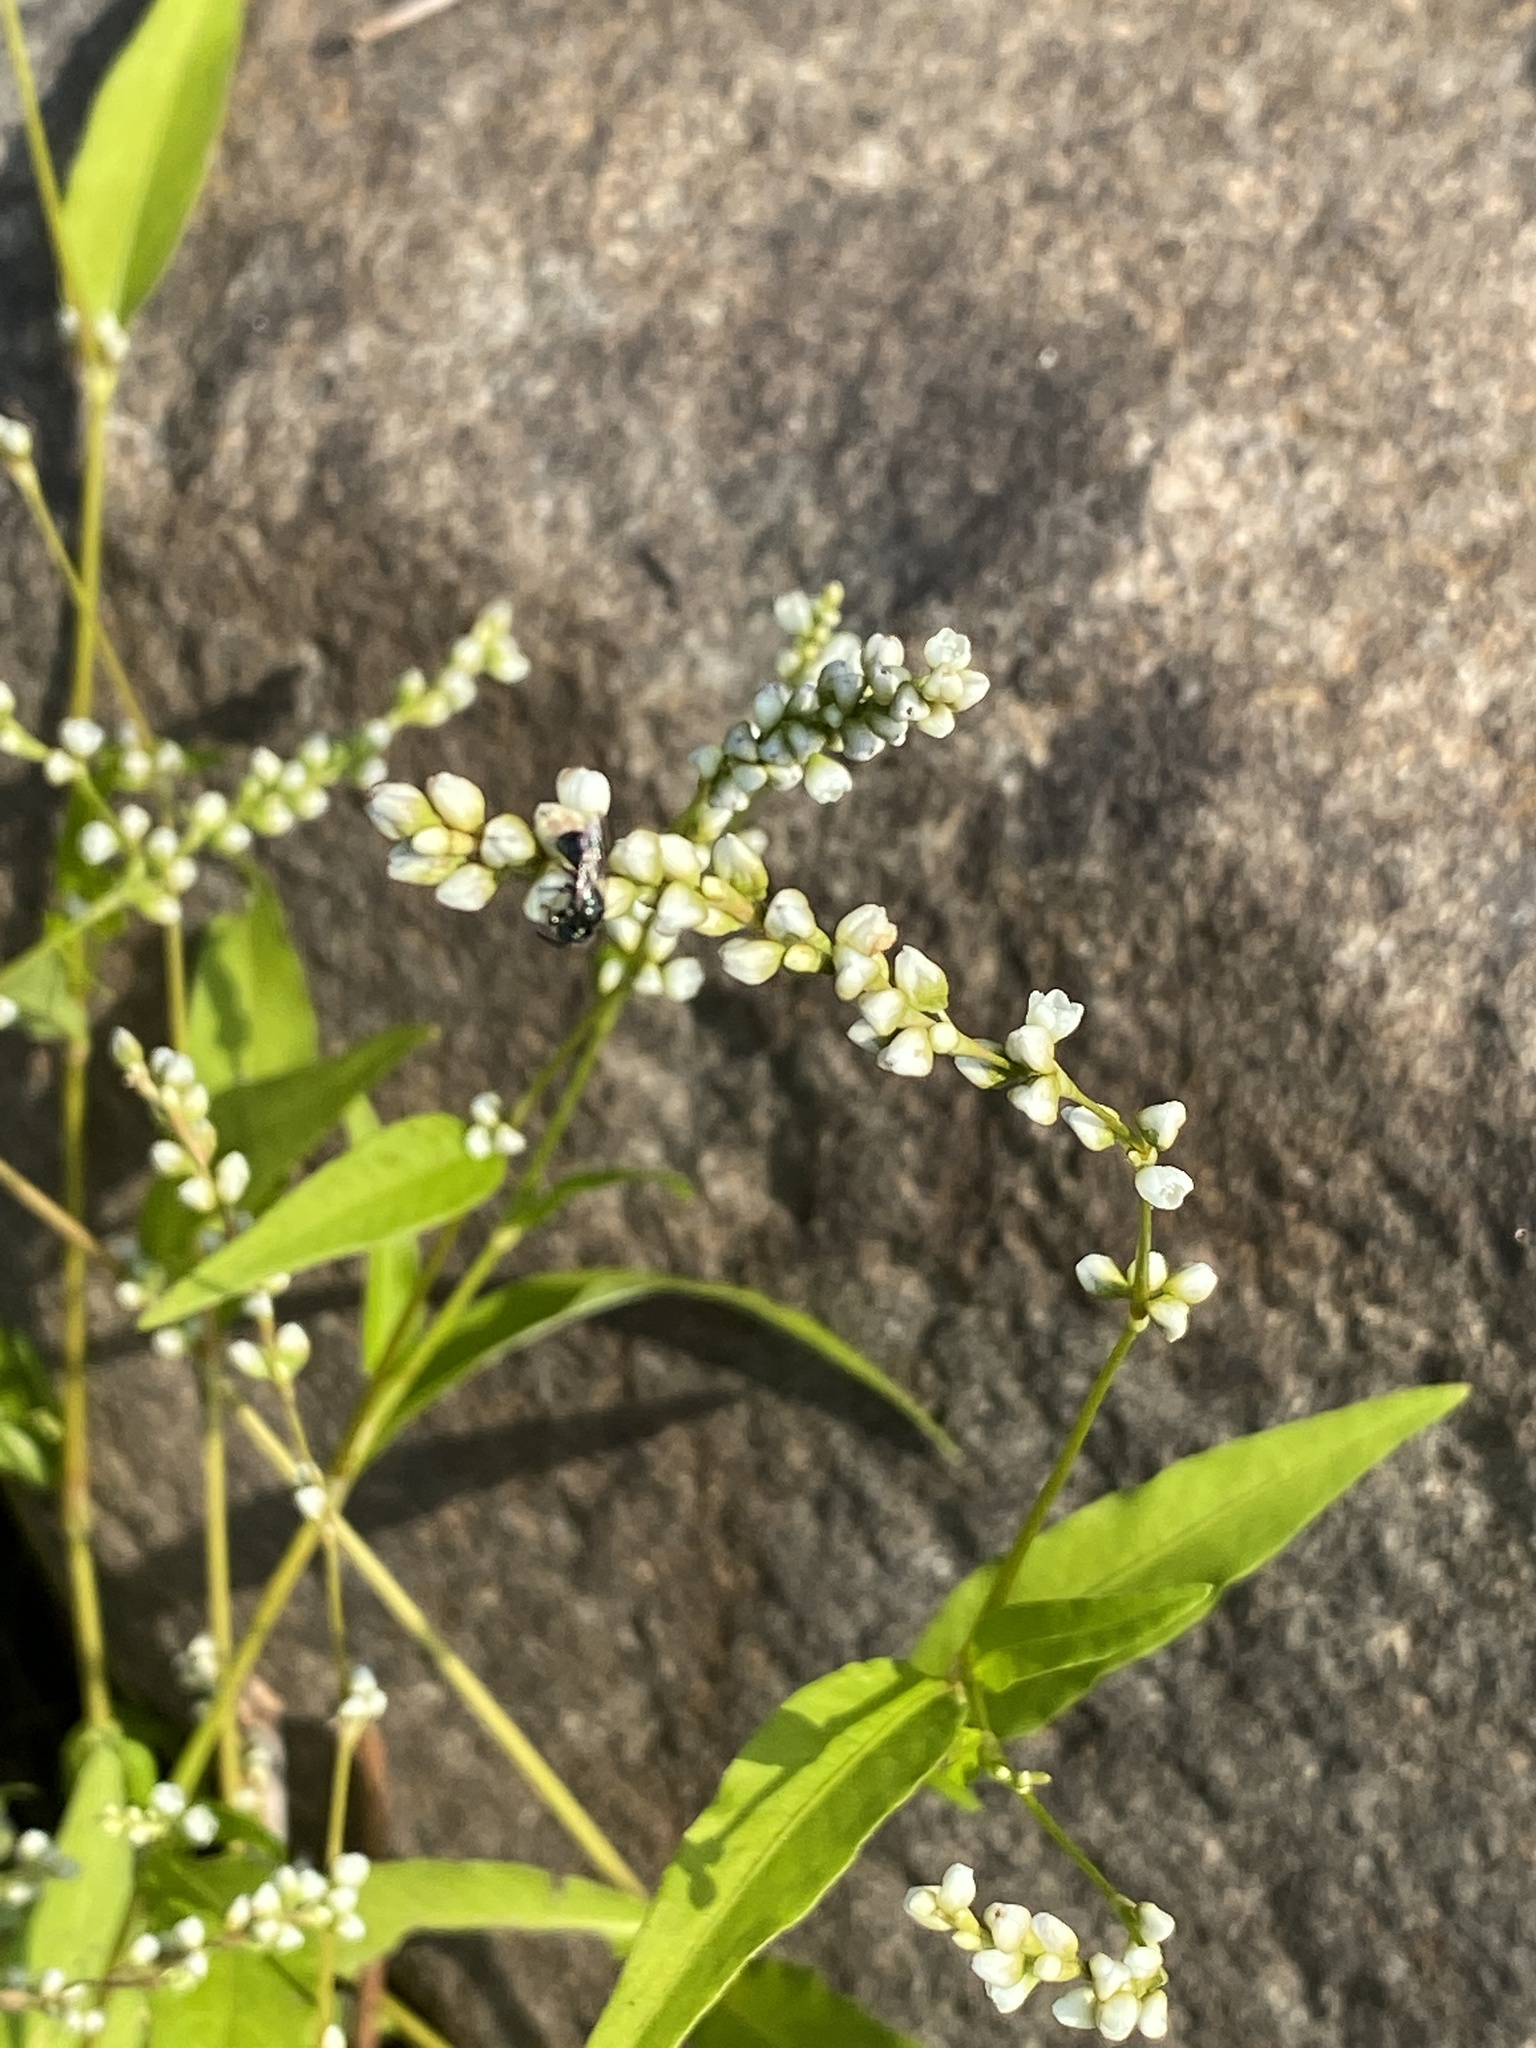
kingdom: Plantae
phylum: Tracheophyta
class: Magnoliopsida
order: Caryophyllales
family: Polygonaceae
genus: Persicaria
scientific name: Persicaria punctata
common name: Dotted smartweed
